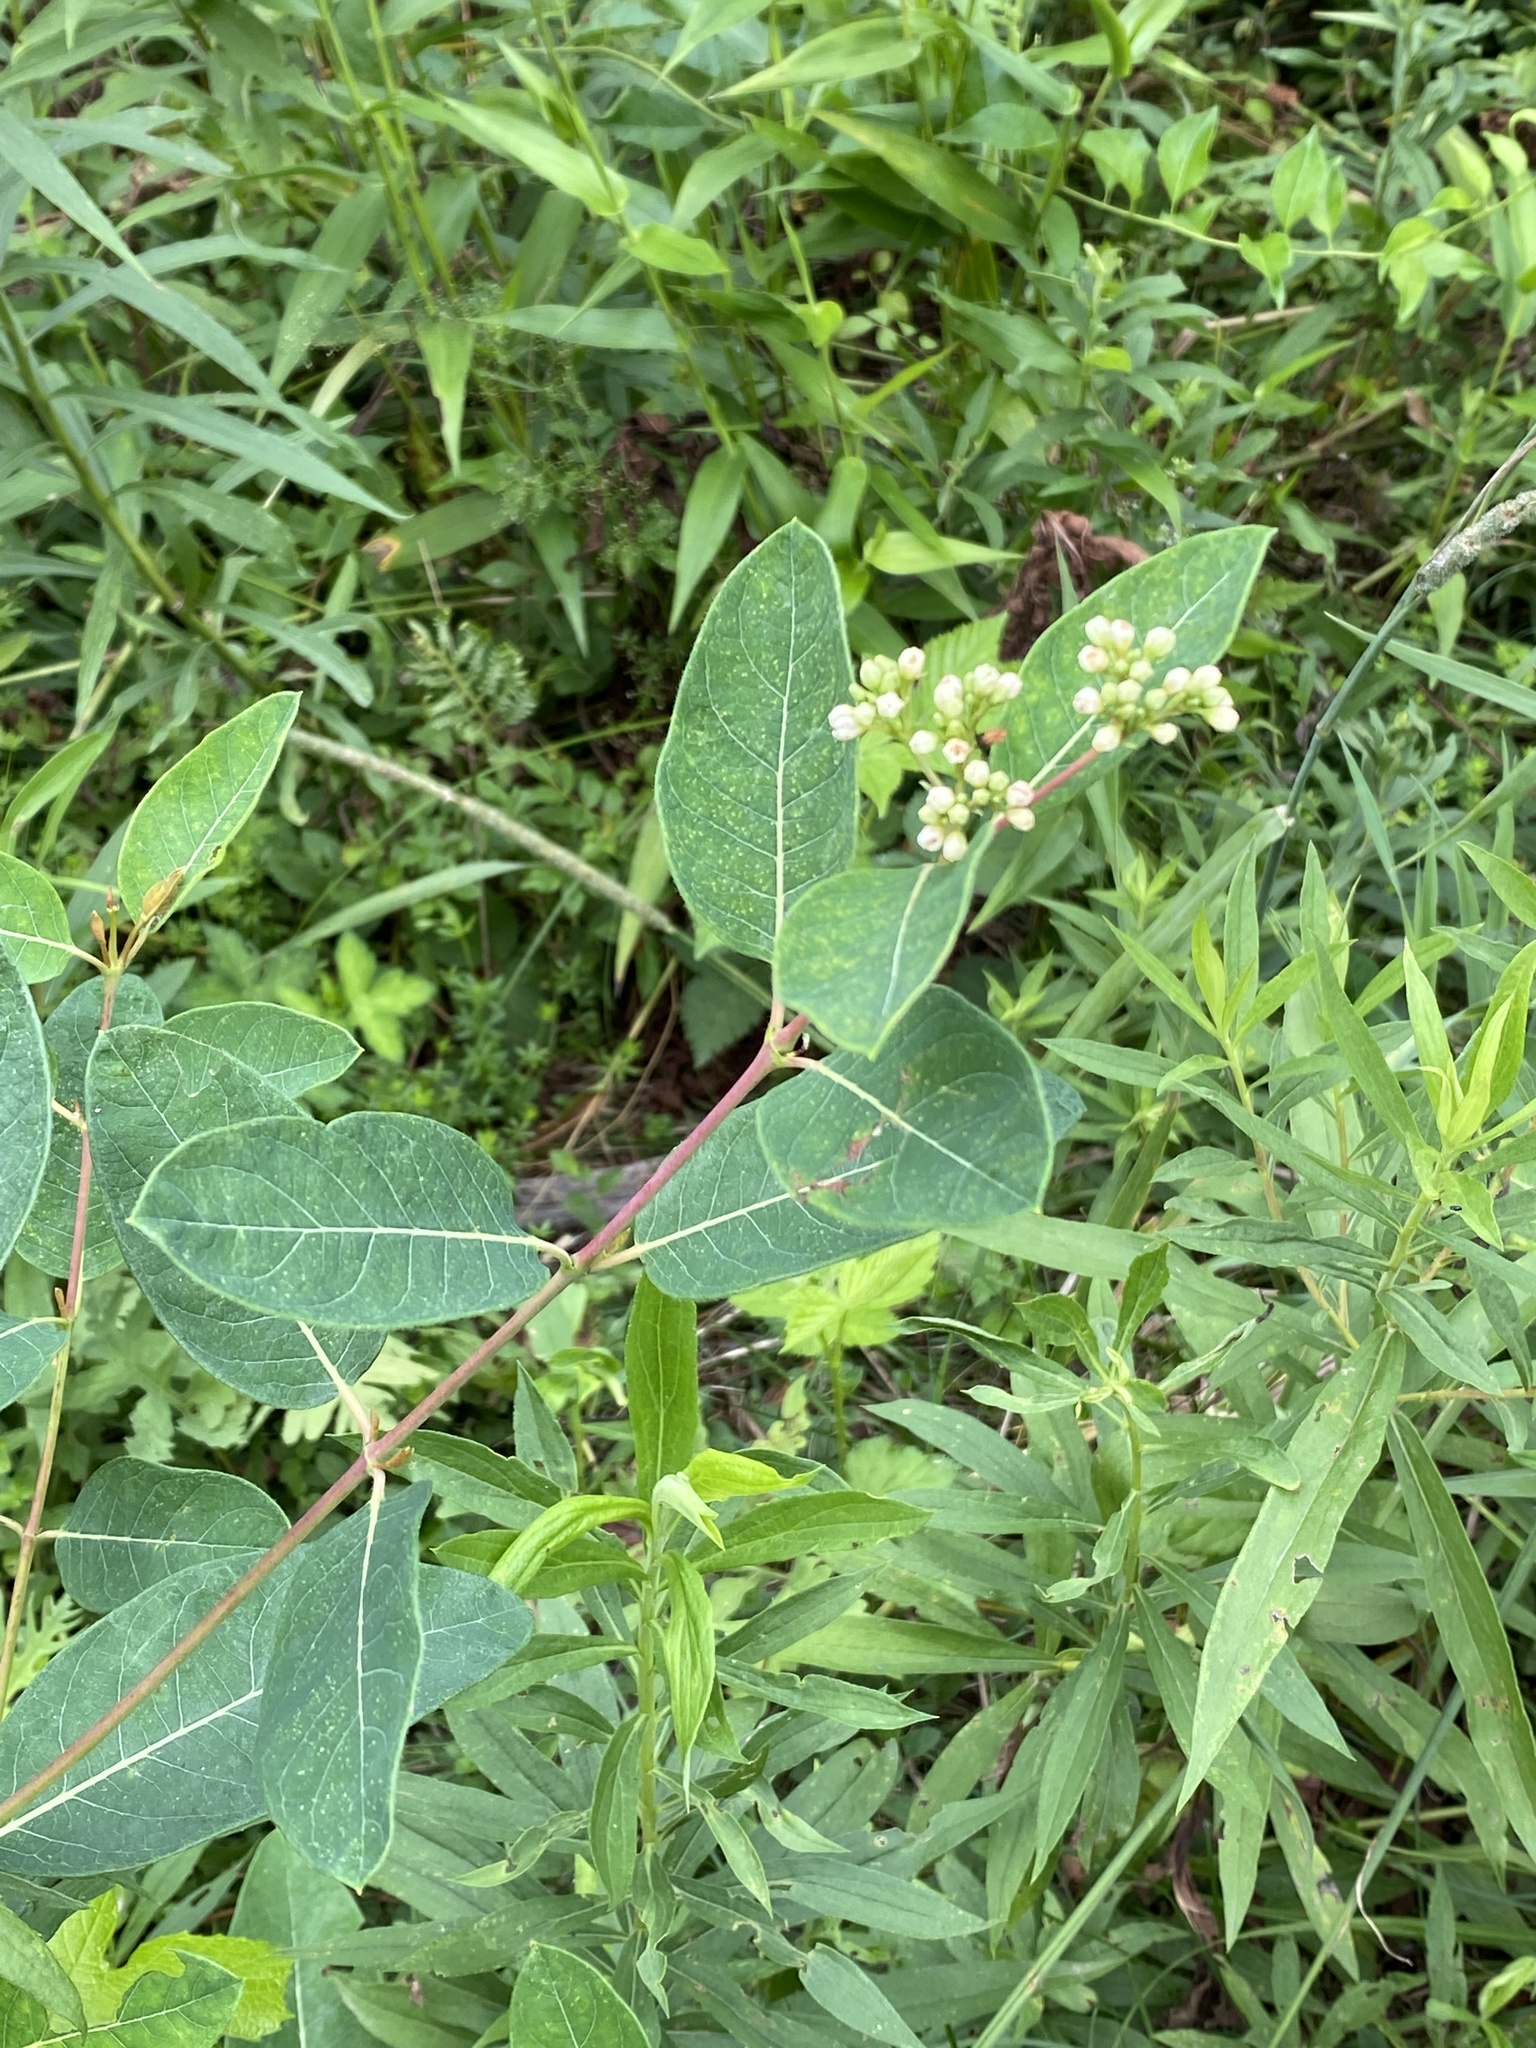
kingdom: Plantae
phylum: Tracheophyta
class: Magnoliopsida
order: Gentianales
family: Apocynaceae
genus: Apocynum
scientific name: Apocynum cannabinum
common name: Hemp dogbane
